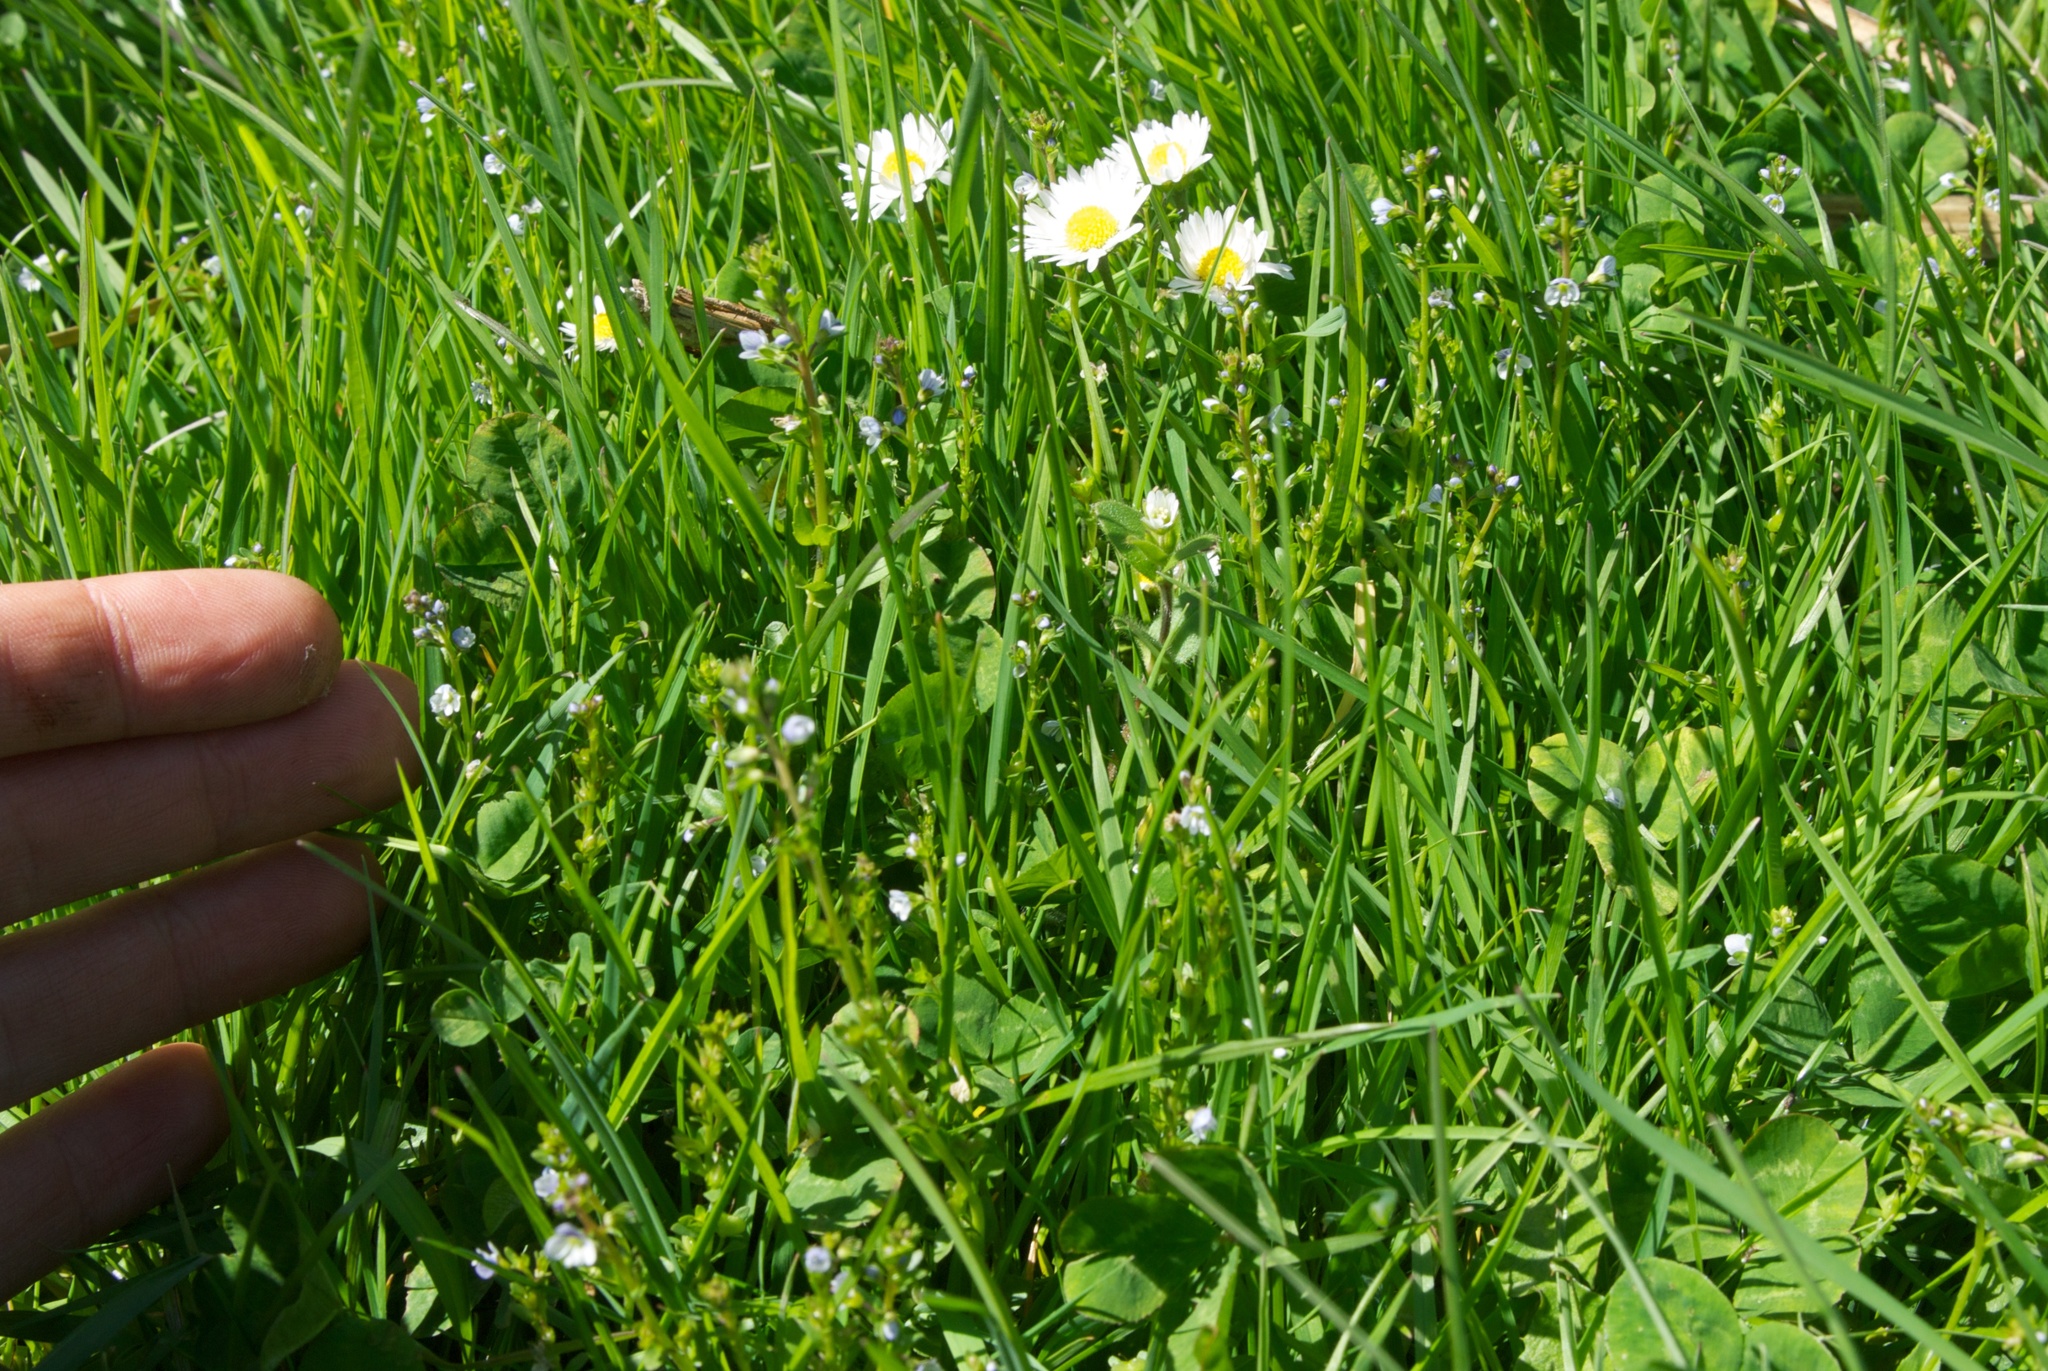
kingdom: Plantae
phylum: Tracheophyta
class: Magnoliopsida
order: Lamiales
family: Plantaginaceae
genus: Veronica
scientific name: Veronica serpyllifolia
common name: Thyme-leaved speedwell
